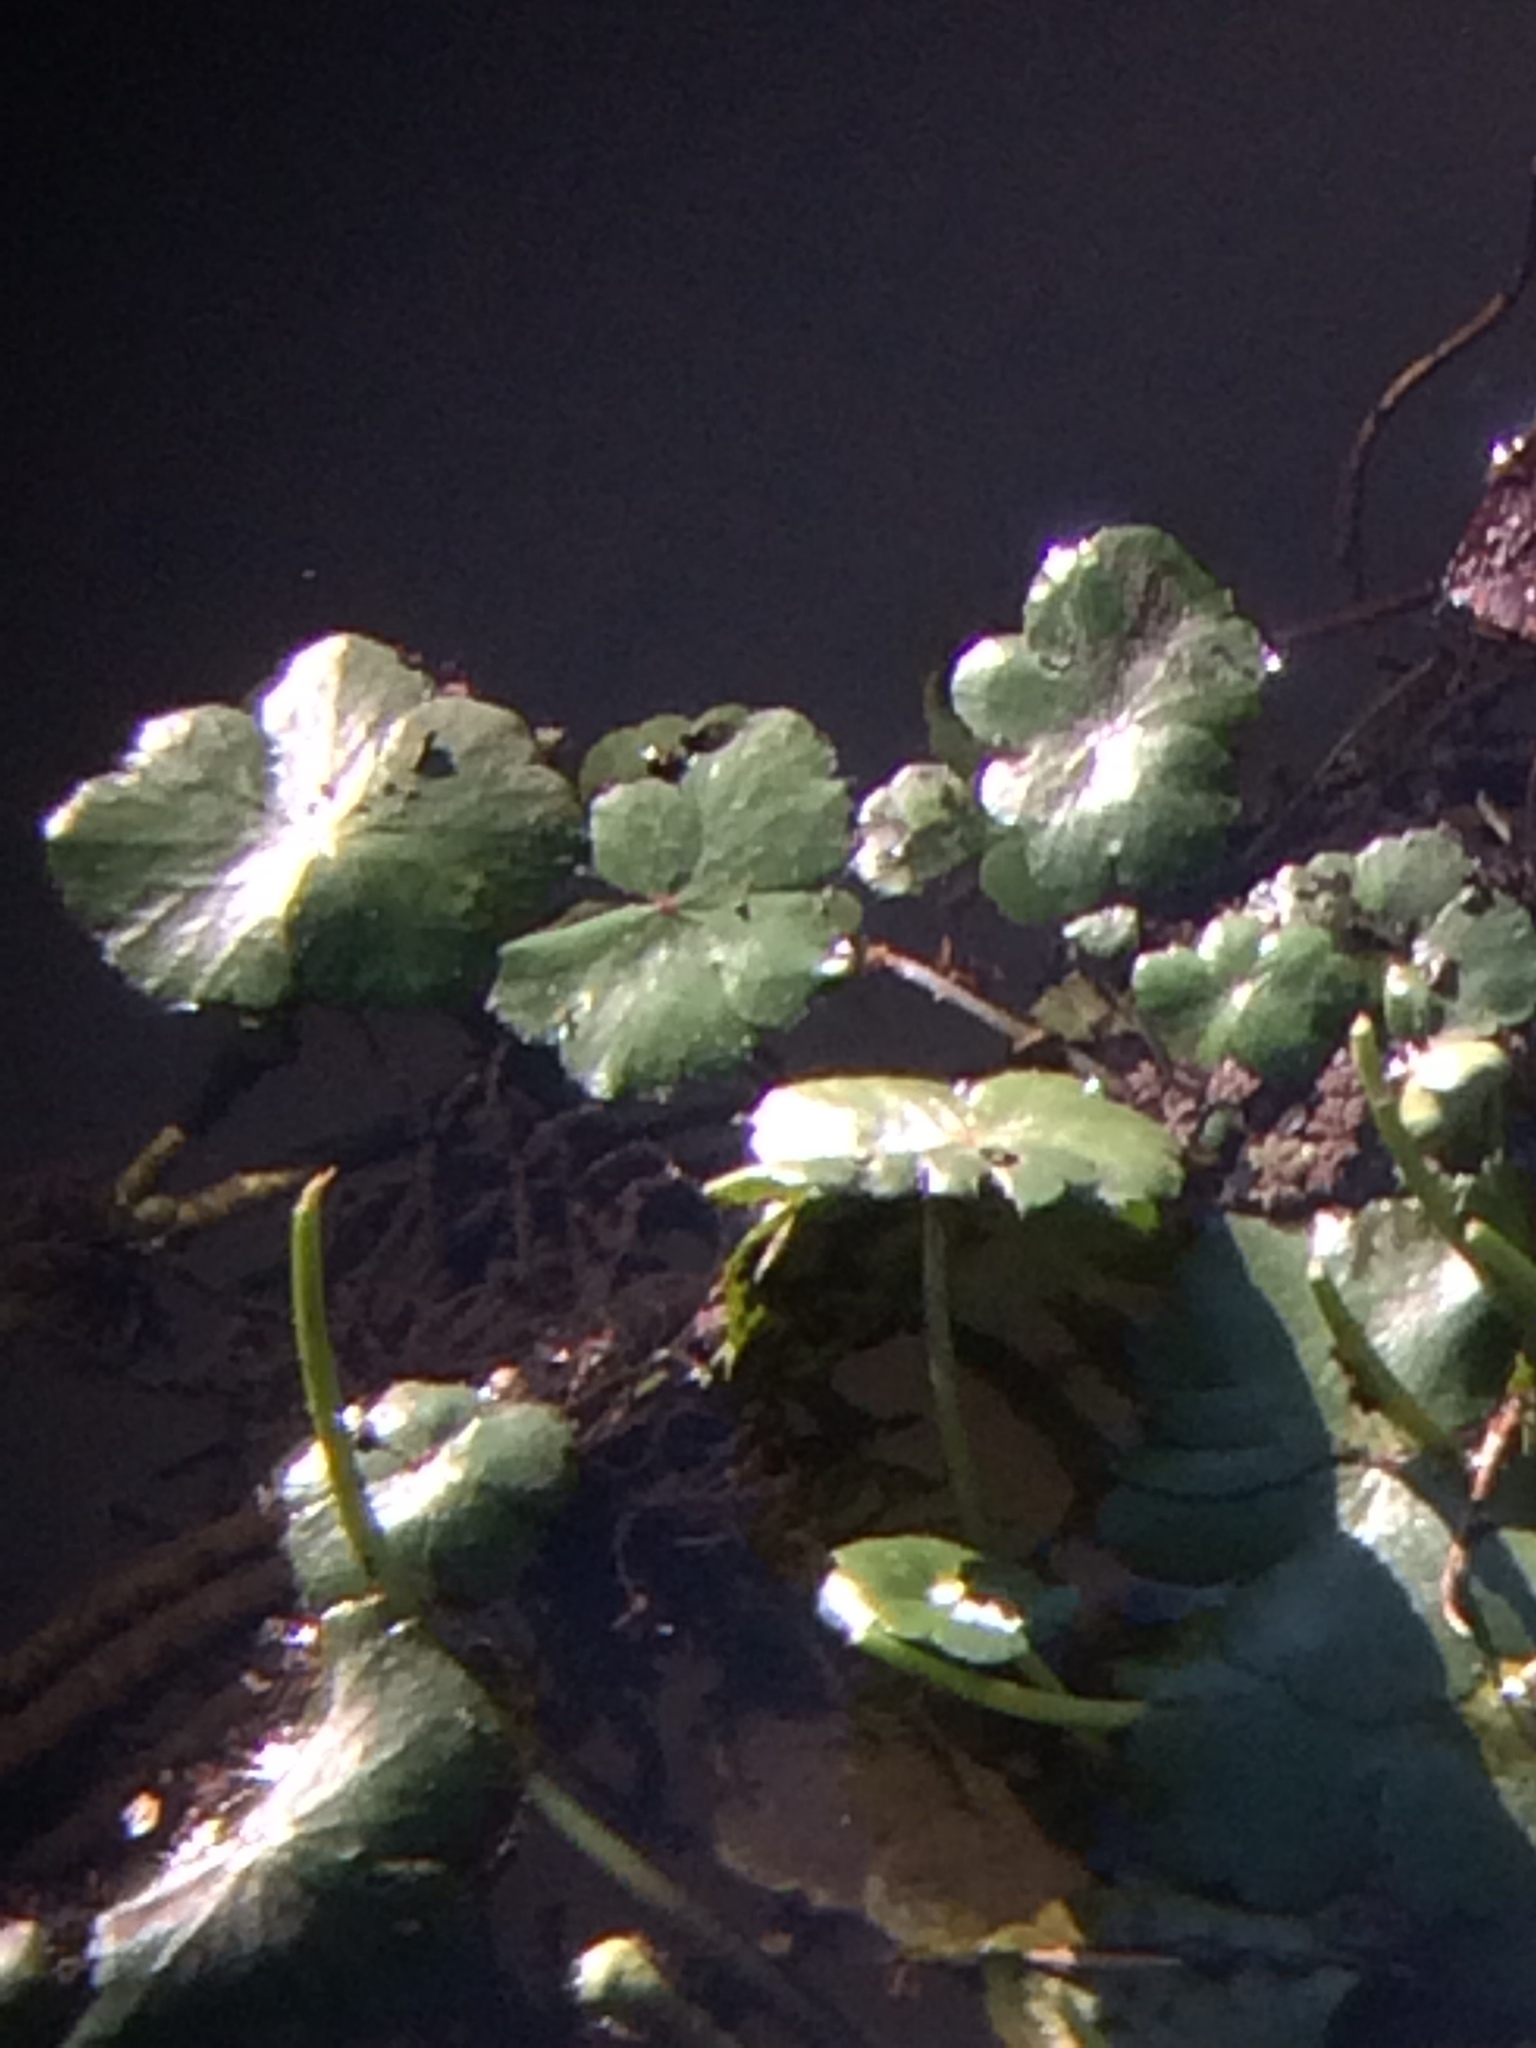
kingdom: Plantae
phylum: Tracheophyta
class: Magnoliopsida
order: Apiales
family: Araliaceae
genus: Hydrocotyle
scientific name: Hydrocotyle ranunculoides
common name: Floating pennywort
